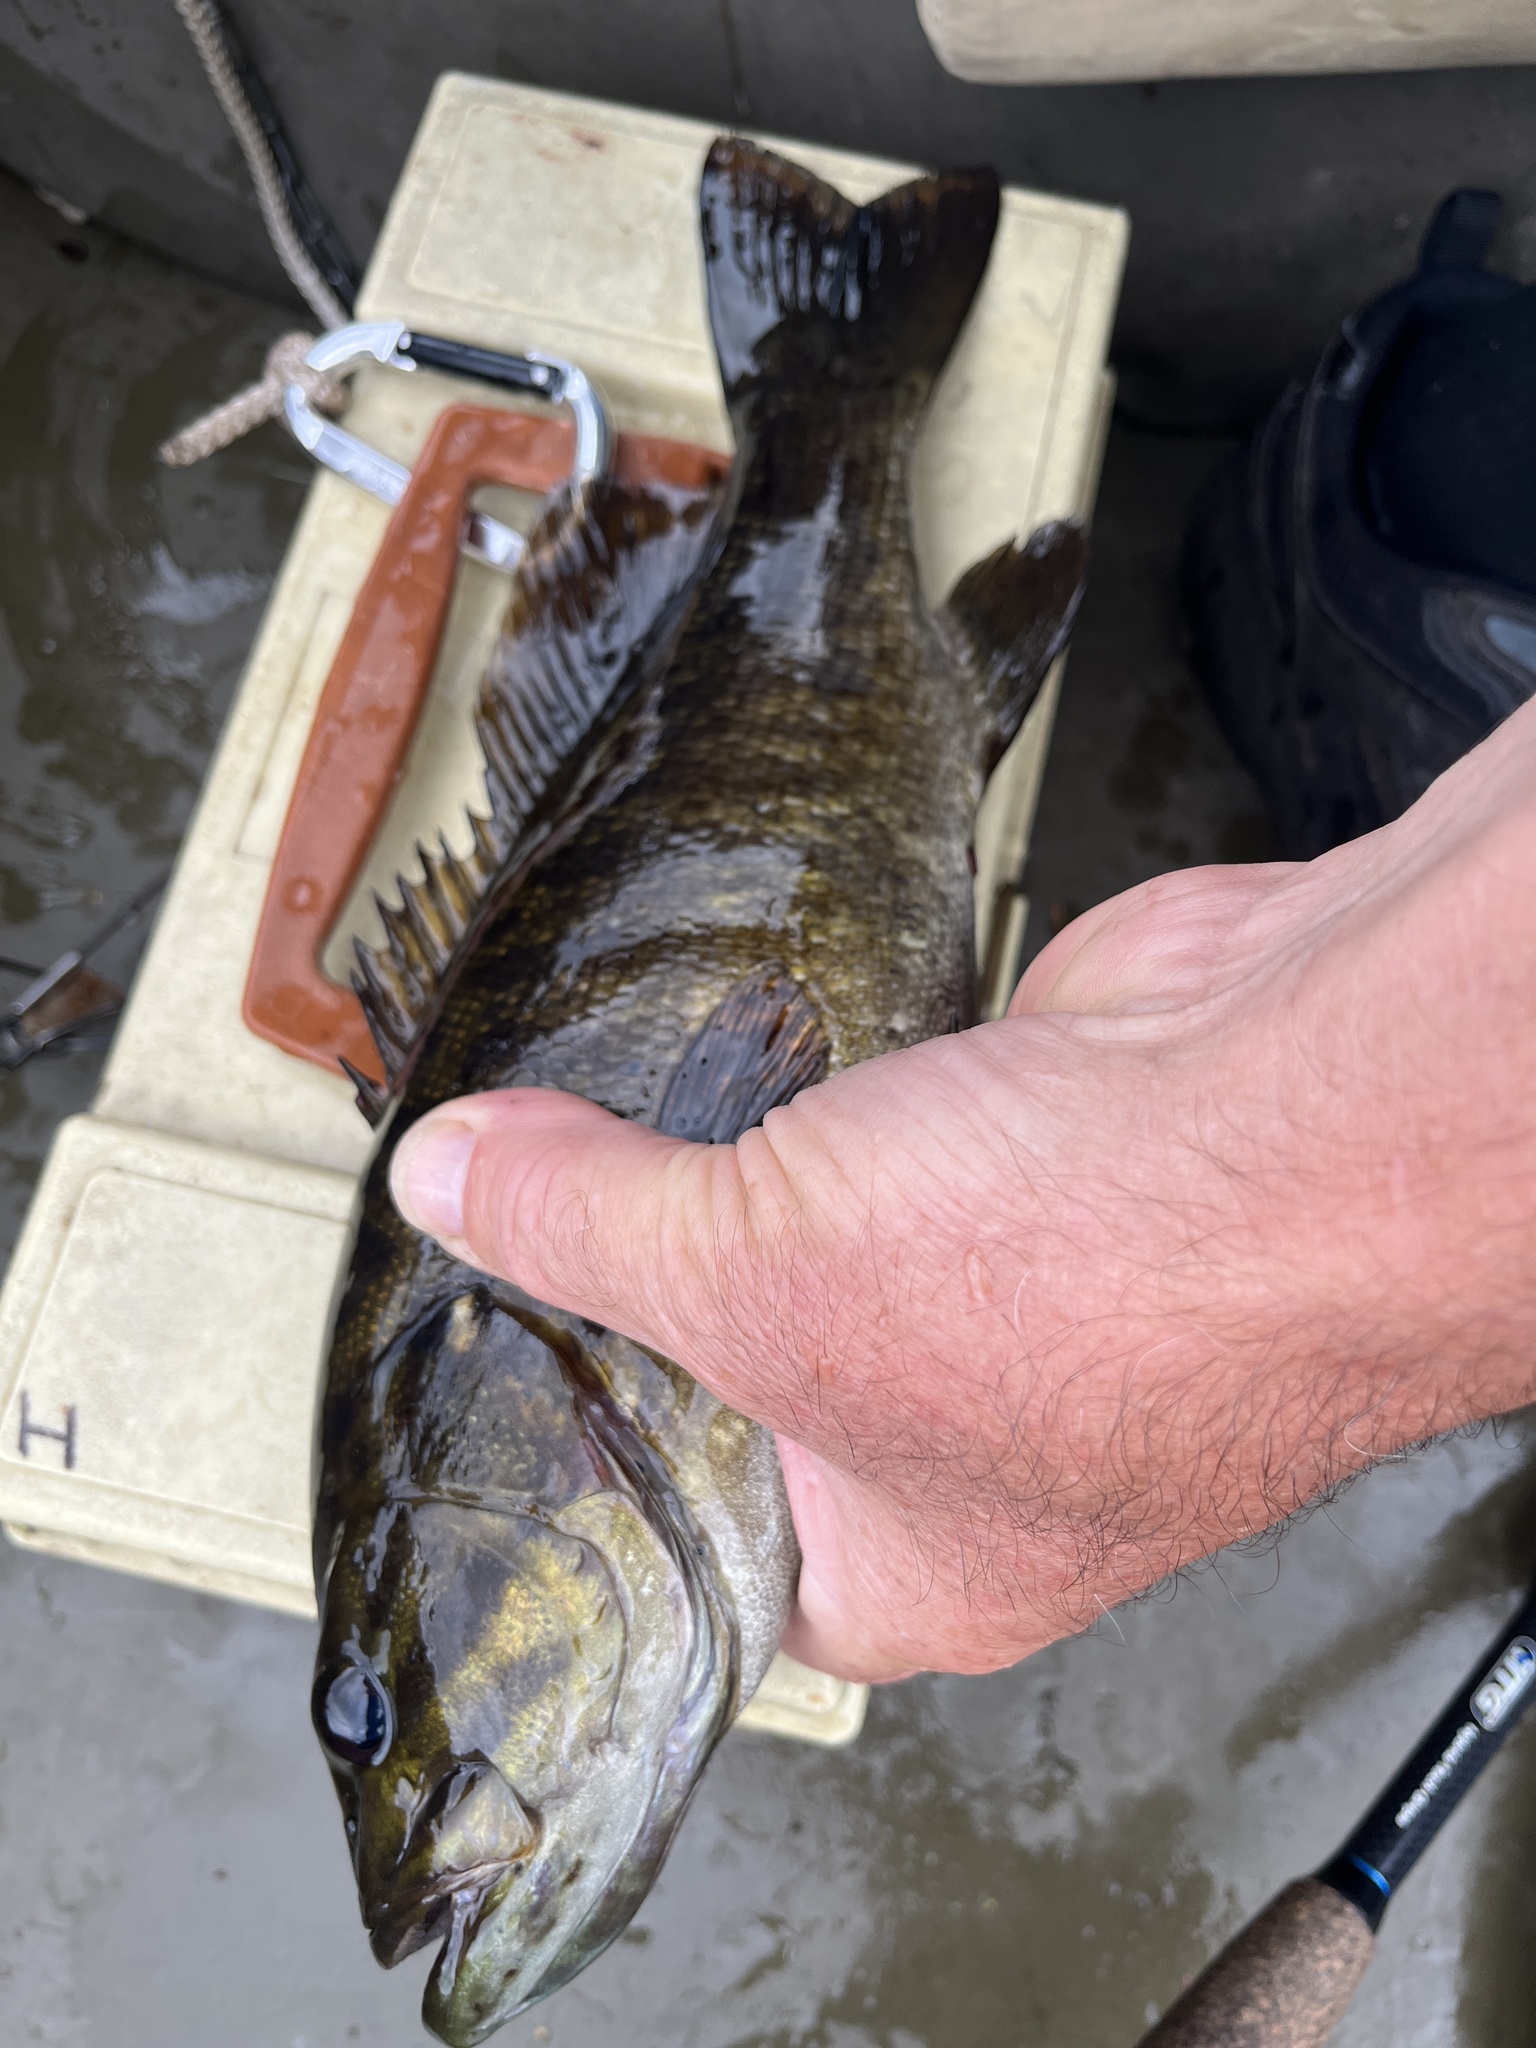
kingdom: Animalia
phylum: Chordata
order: Perciformes
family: Centrarchidae
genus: Micropterus
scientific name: Micropterus dolomieu
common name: Smallmouth bass
